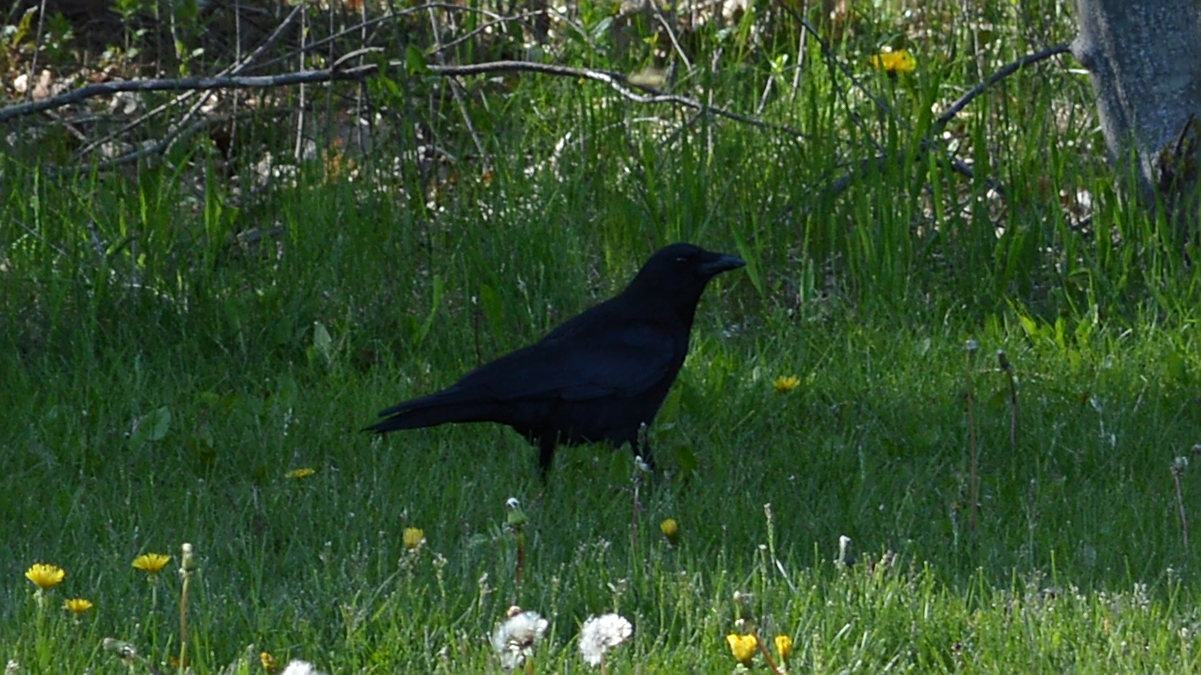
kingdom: Animalia
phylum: Chordata
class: Aves
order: Passeriformes
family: Corvidae
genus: Corvus
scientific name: Corvus brachyrhynchos
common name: American crow
